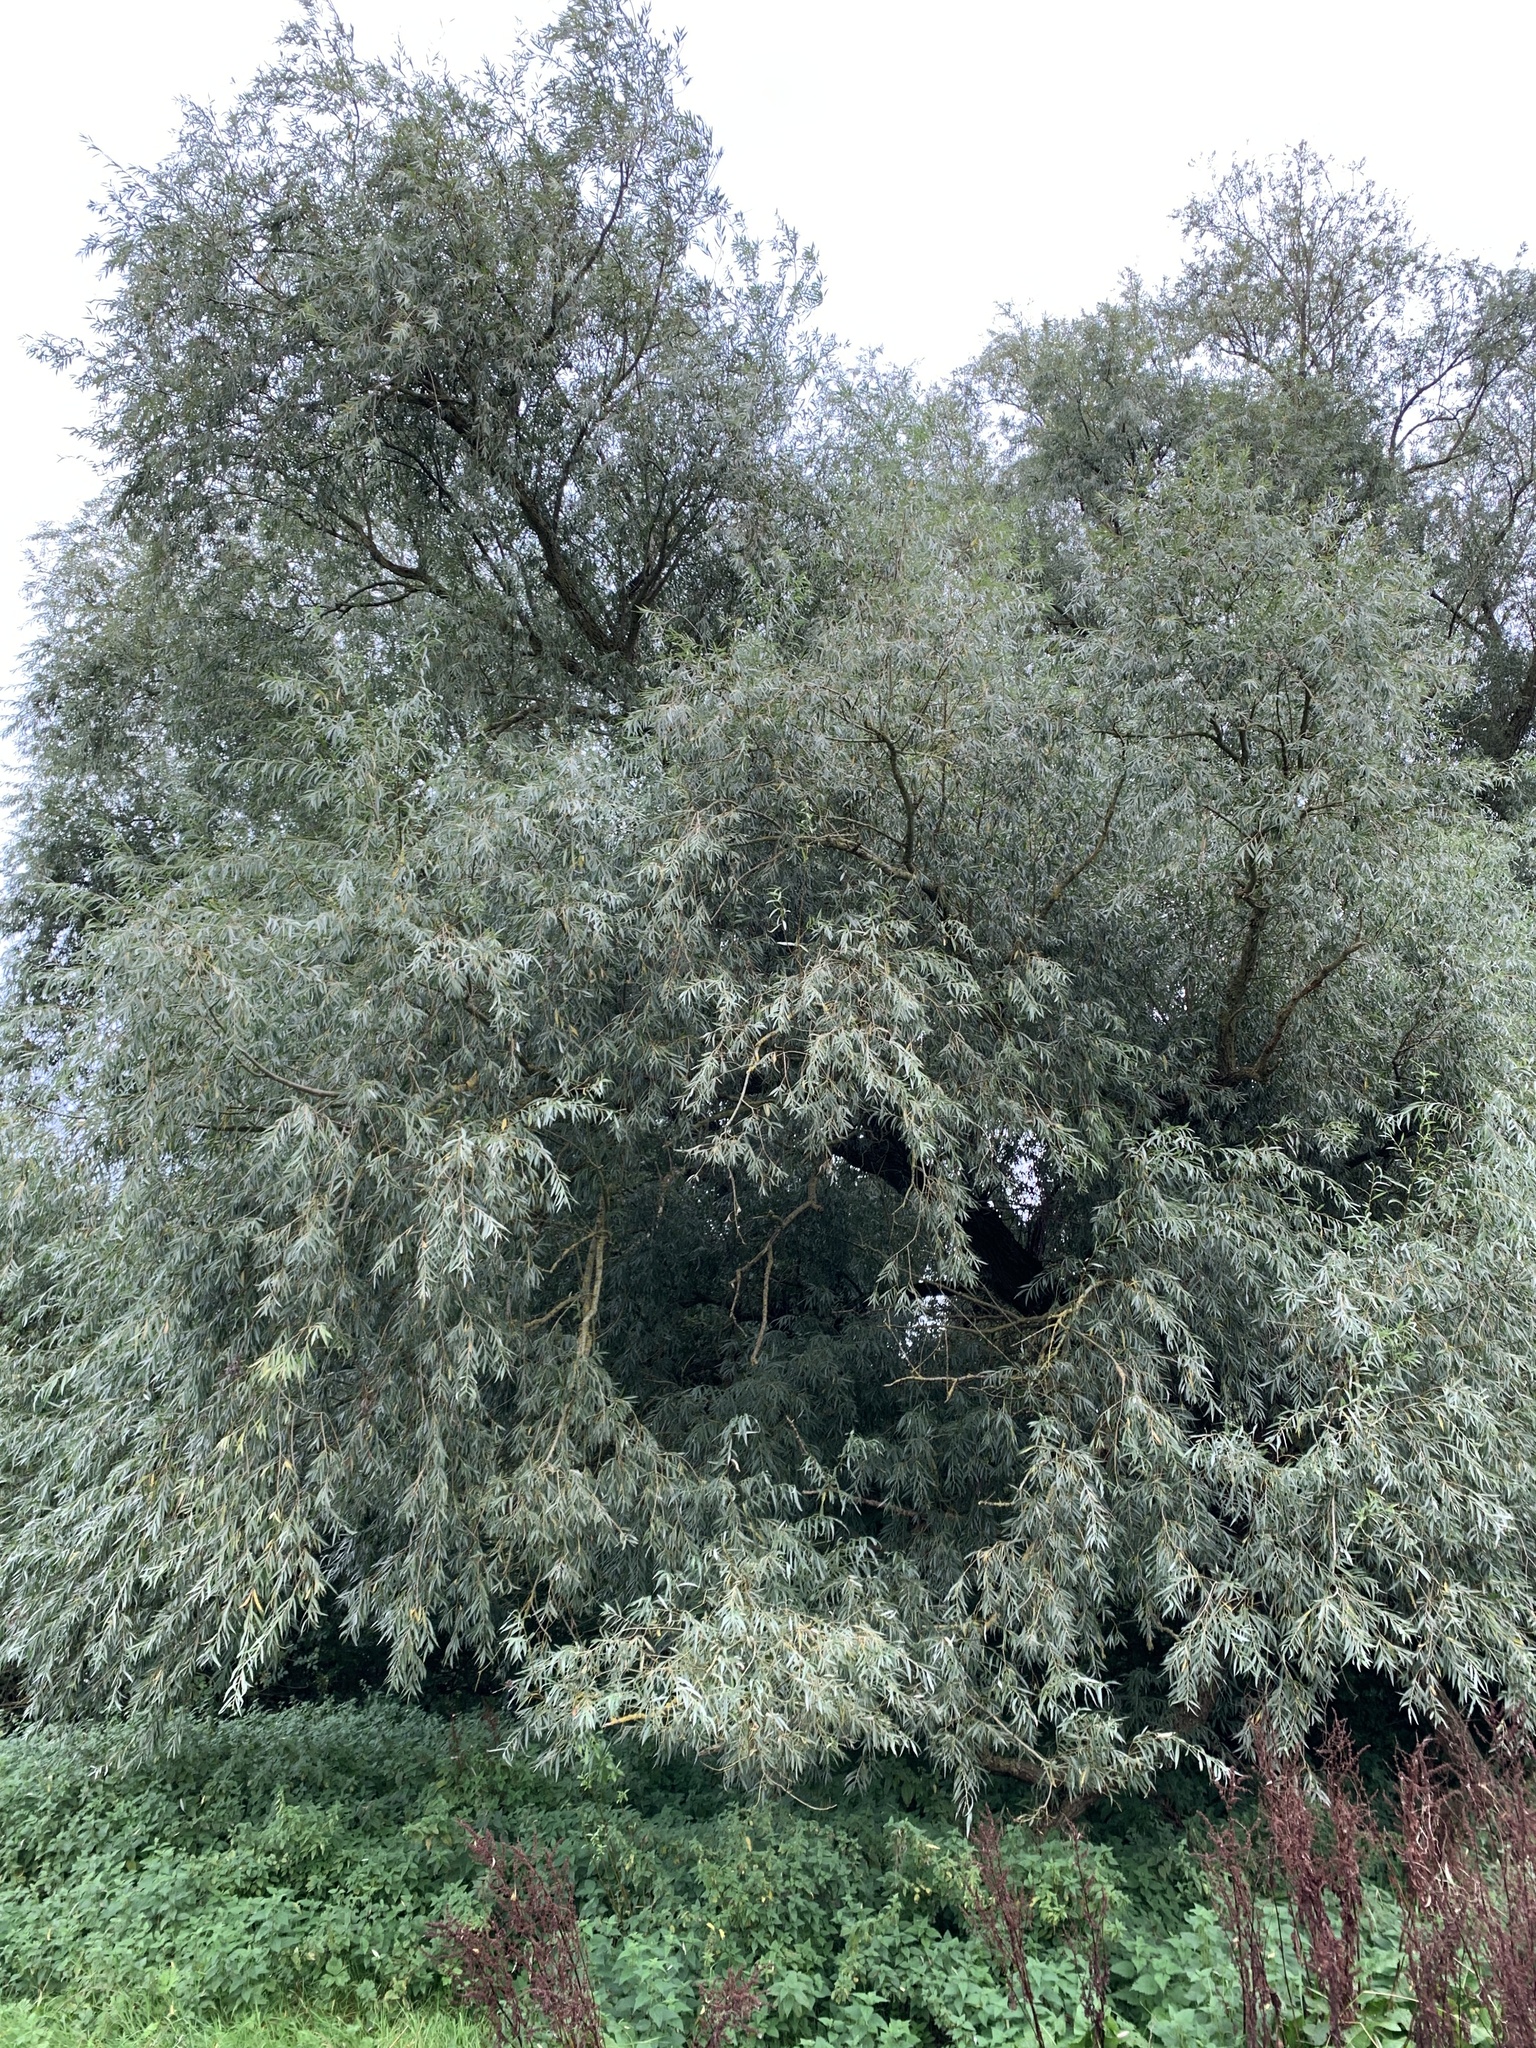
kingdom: Plantae
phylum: Tracheophyta
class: Magnoliopsida
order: Malpighiales
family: Salicaceae
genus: Salix
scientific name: Salix alba
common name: White willow
